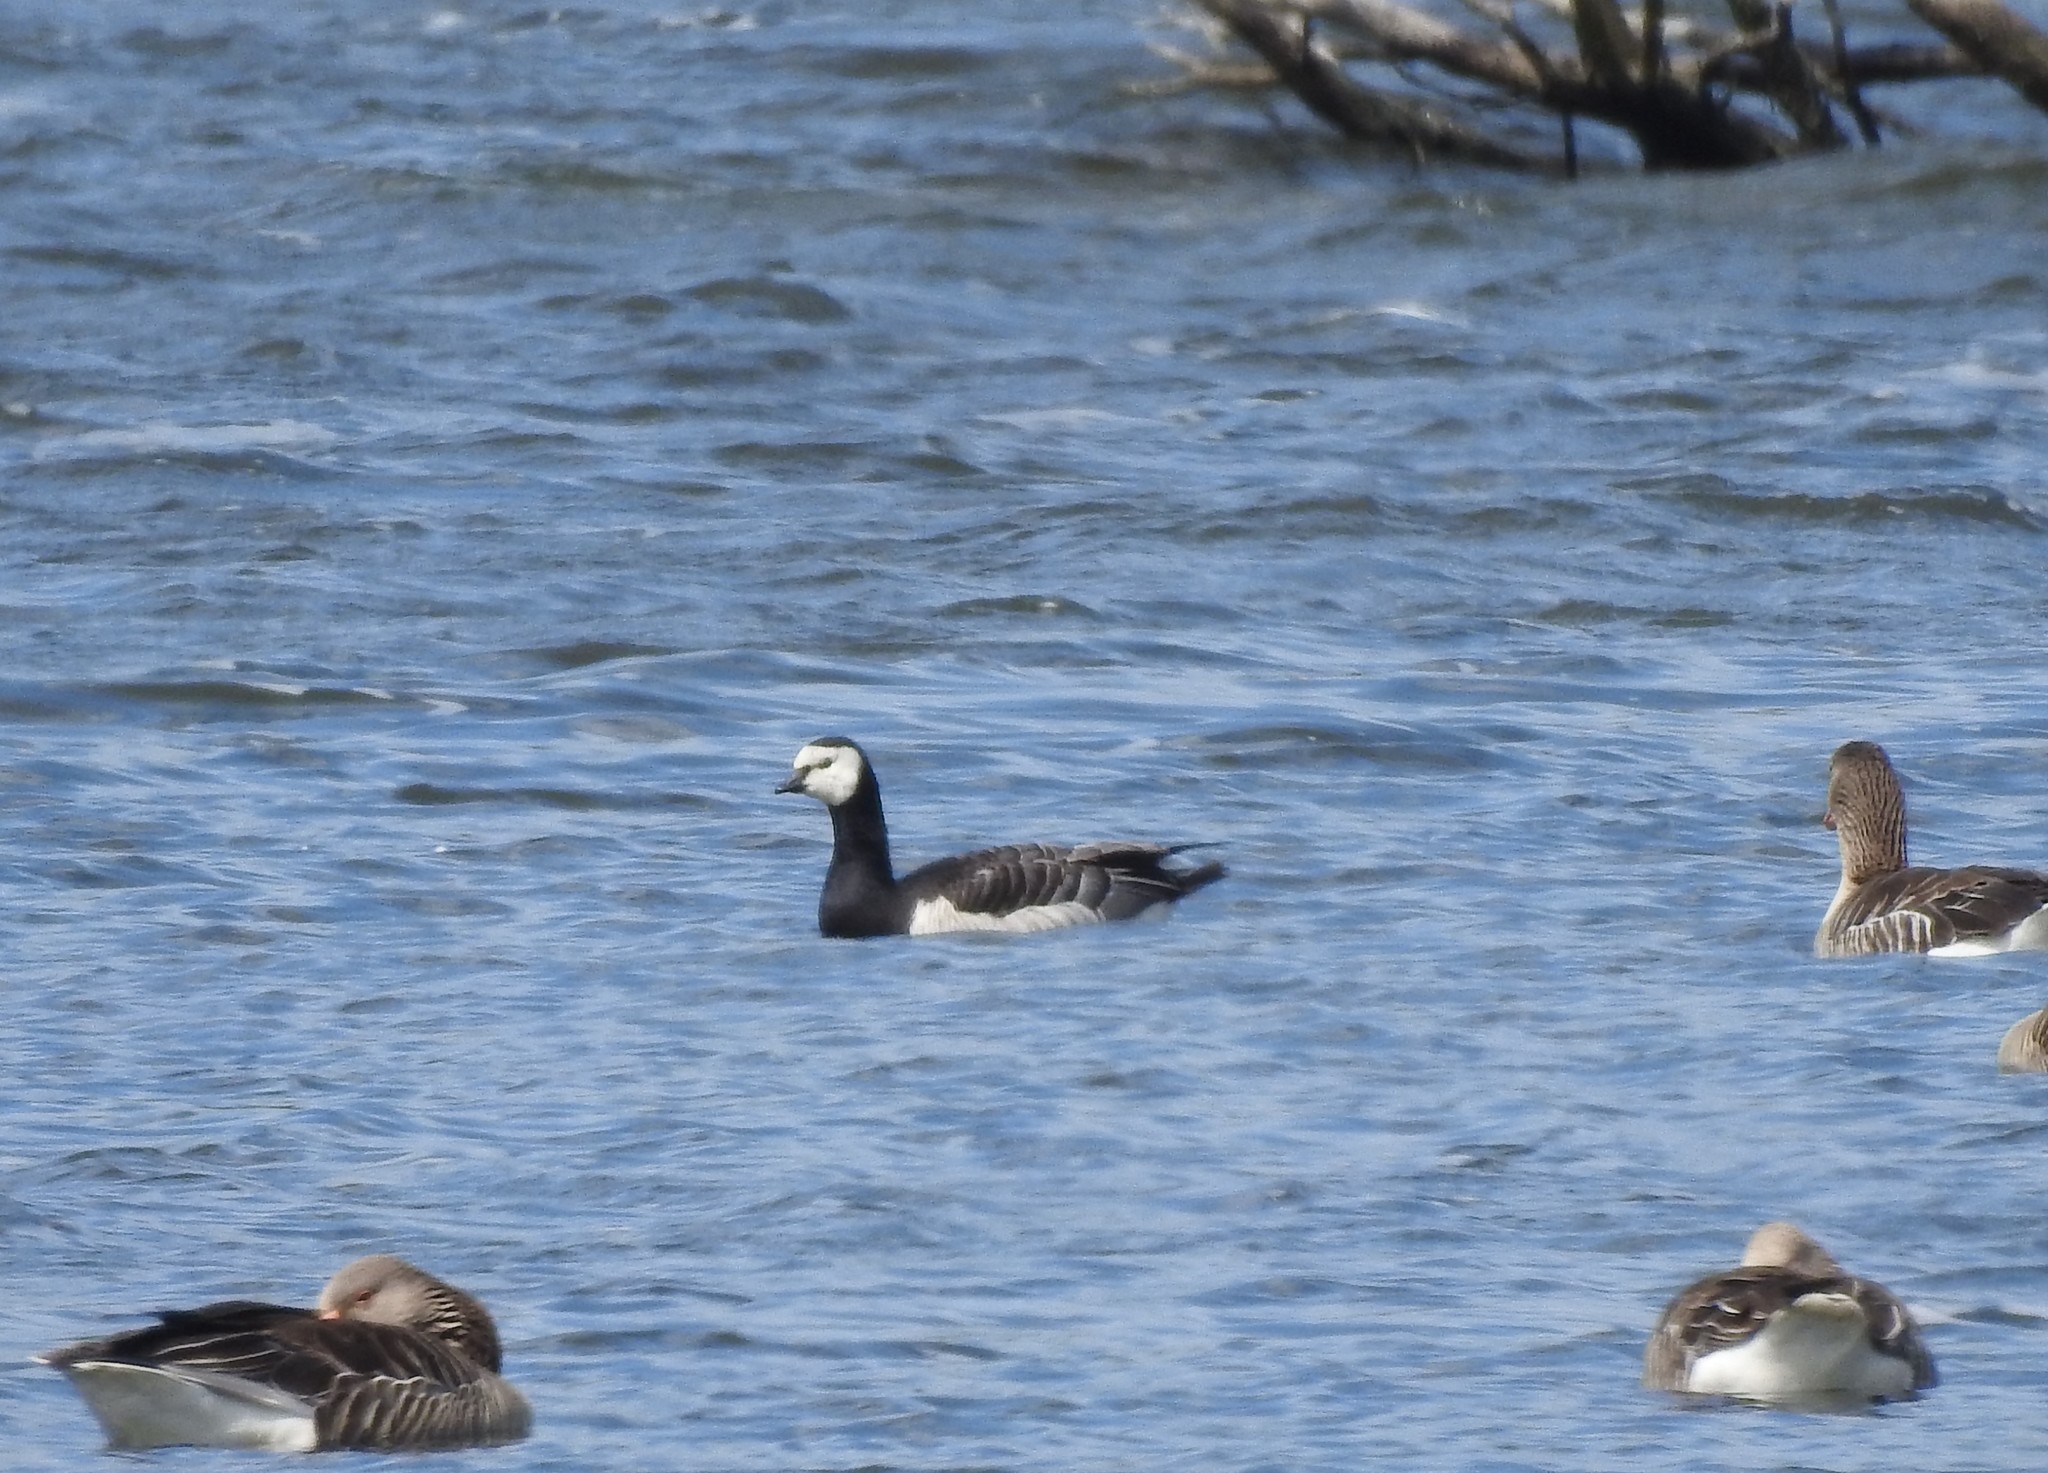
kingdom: Animalia
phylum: Chordata
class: Aves
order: Anseriformes
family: Anatidae
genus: Branta
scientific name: Branta leucopsis
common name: Barnacle goose
